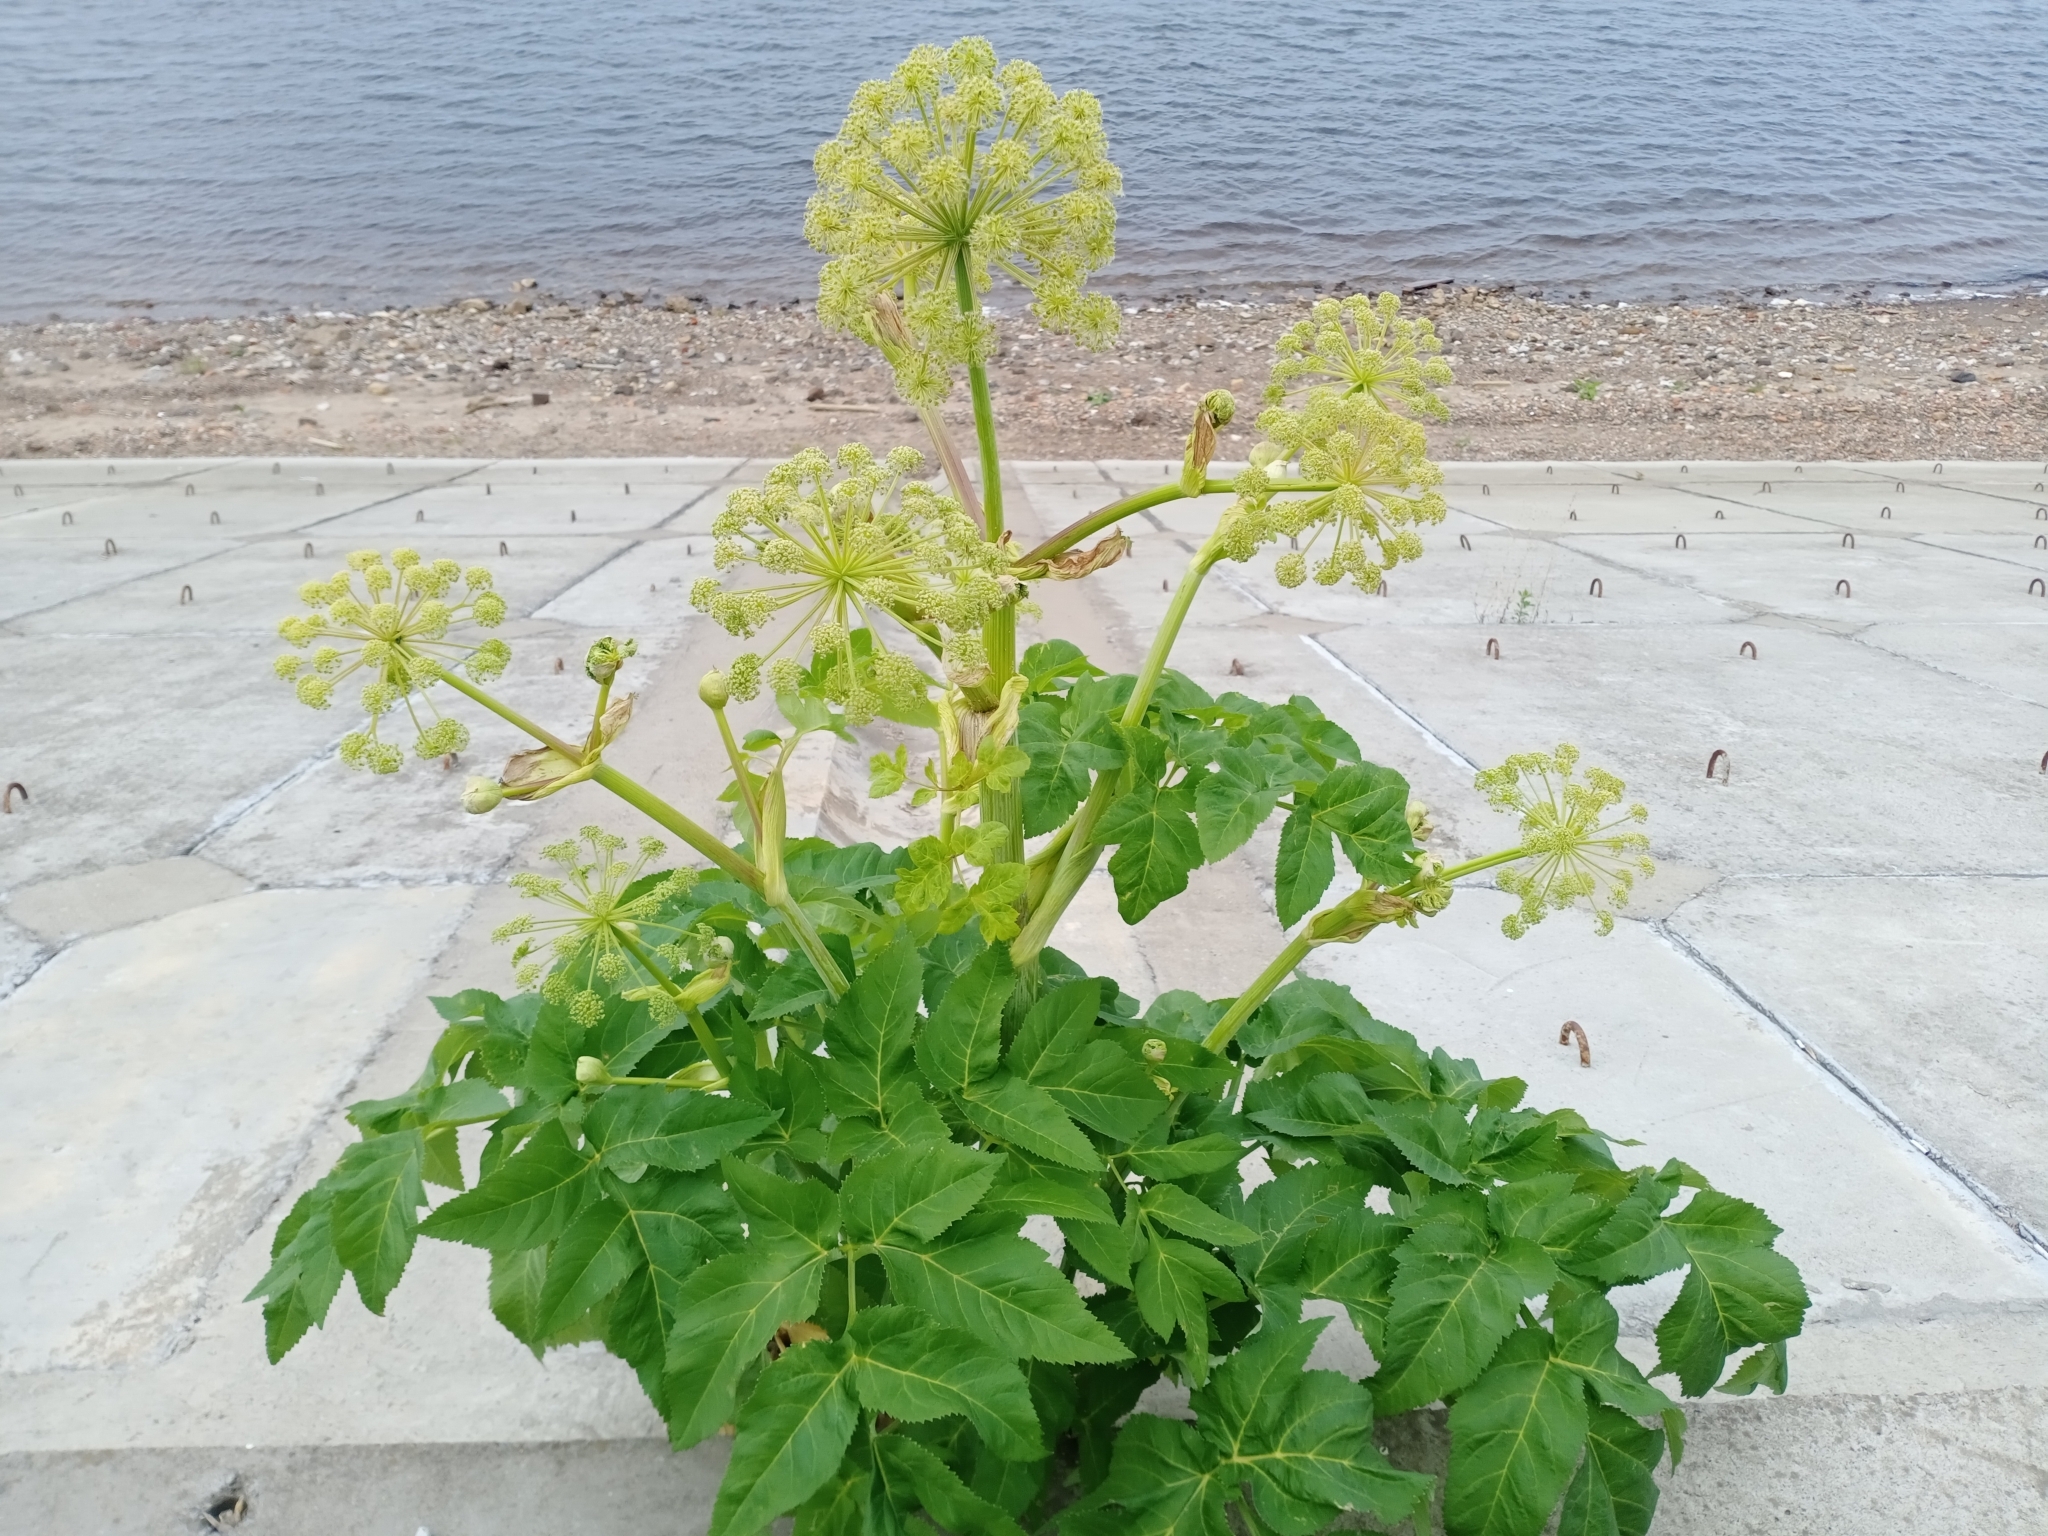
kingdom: Plantae
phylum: Tracheophyta
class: Magnoliopsida
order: Apiales
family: Apiaceae
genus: Angelica
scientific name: Angelica archangelica
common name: Garden angelica
